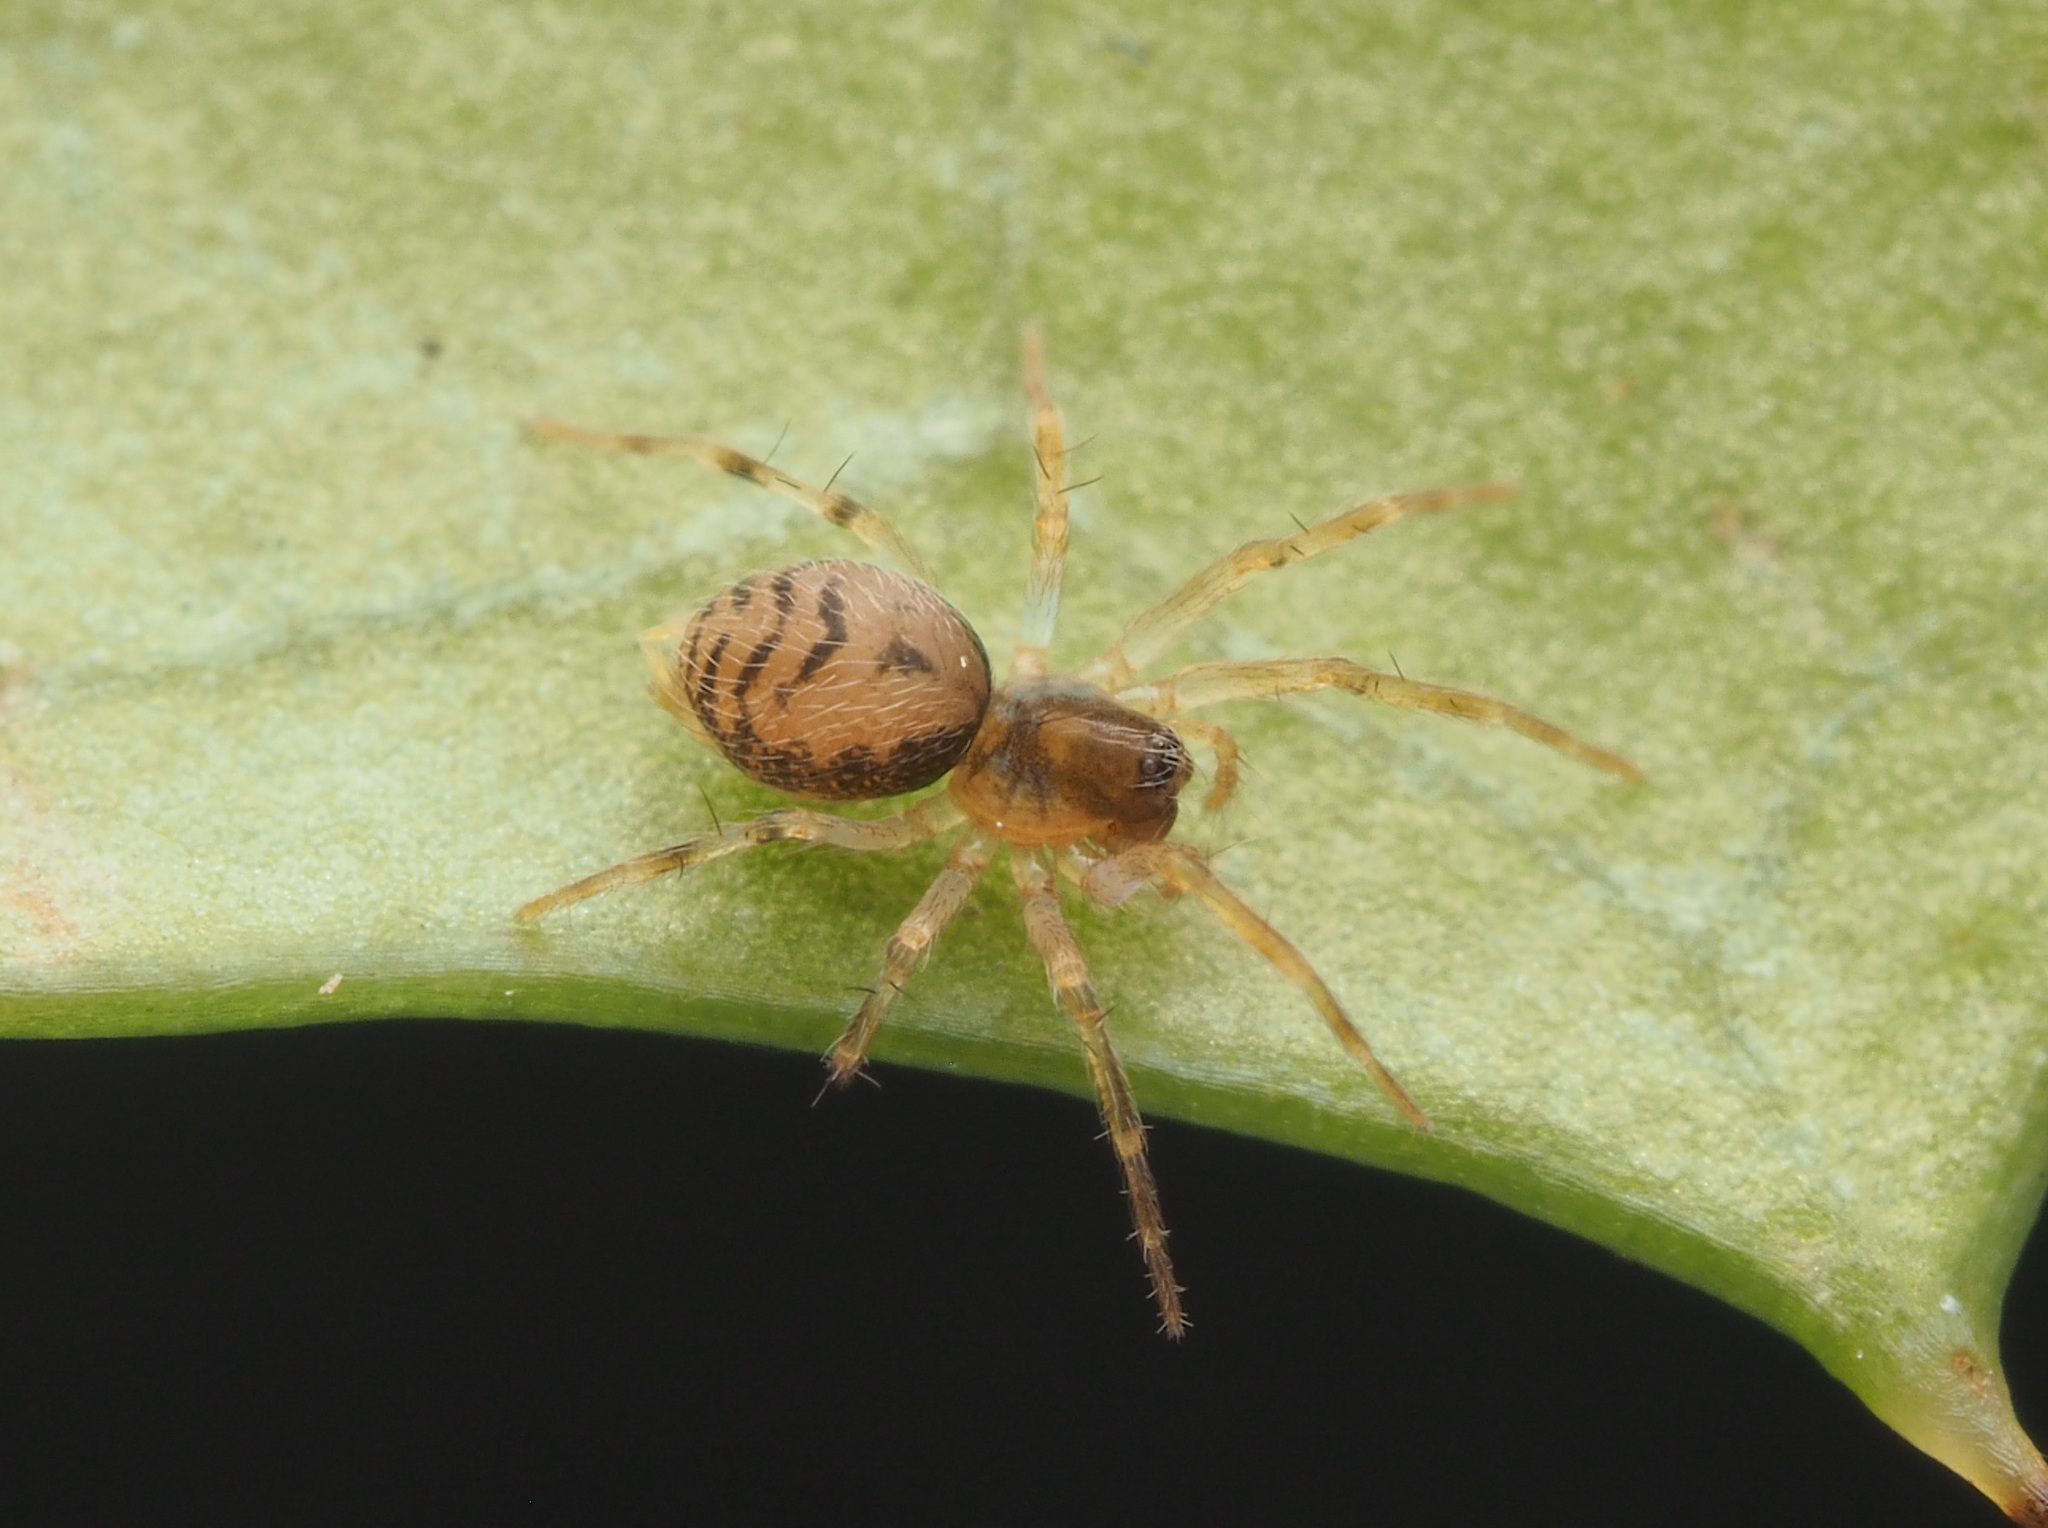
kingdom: Animalia
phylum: Arthropoda
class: Arachnida
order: Araneae
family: Hahniidae
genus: Alistra
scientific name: Alistra
